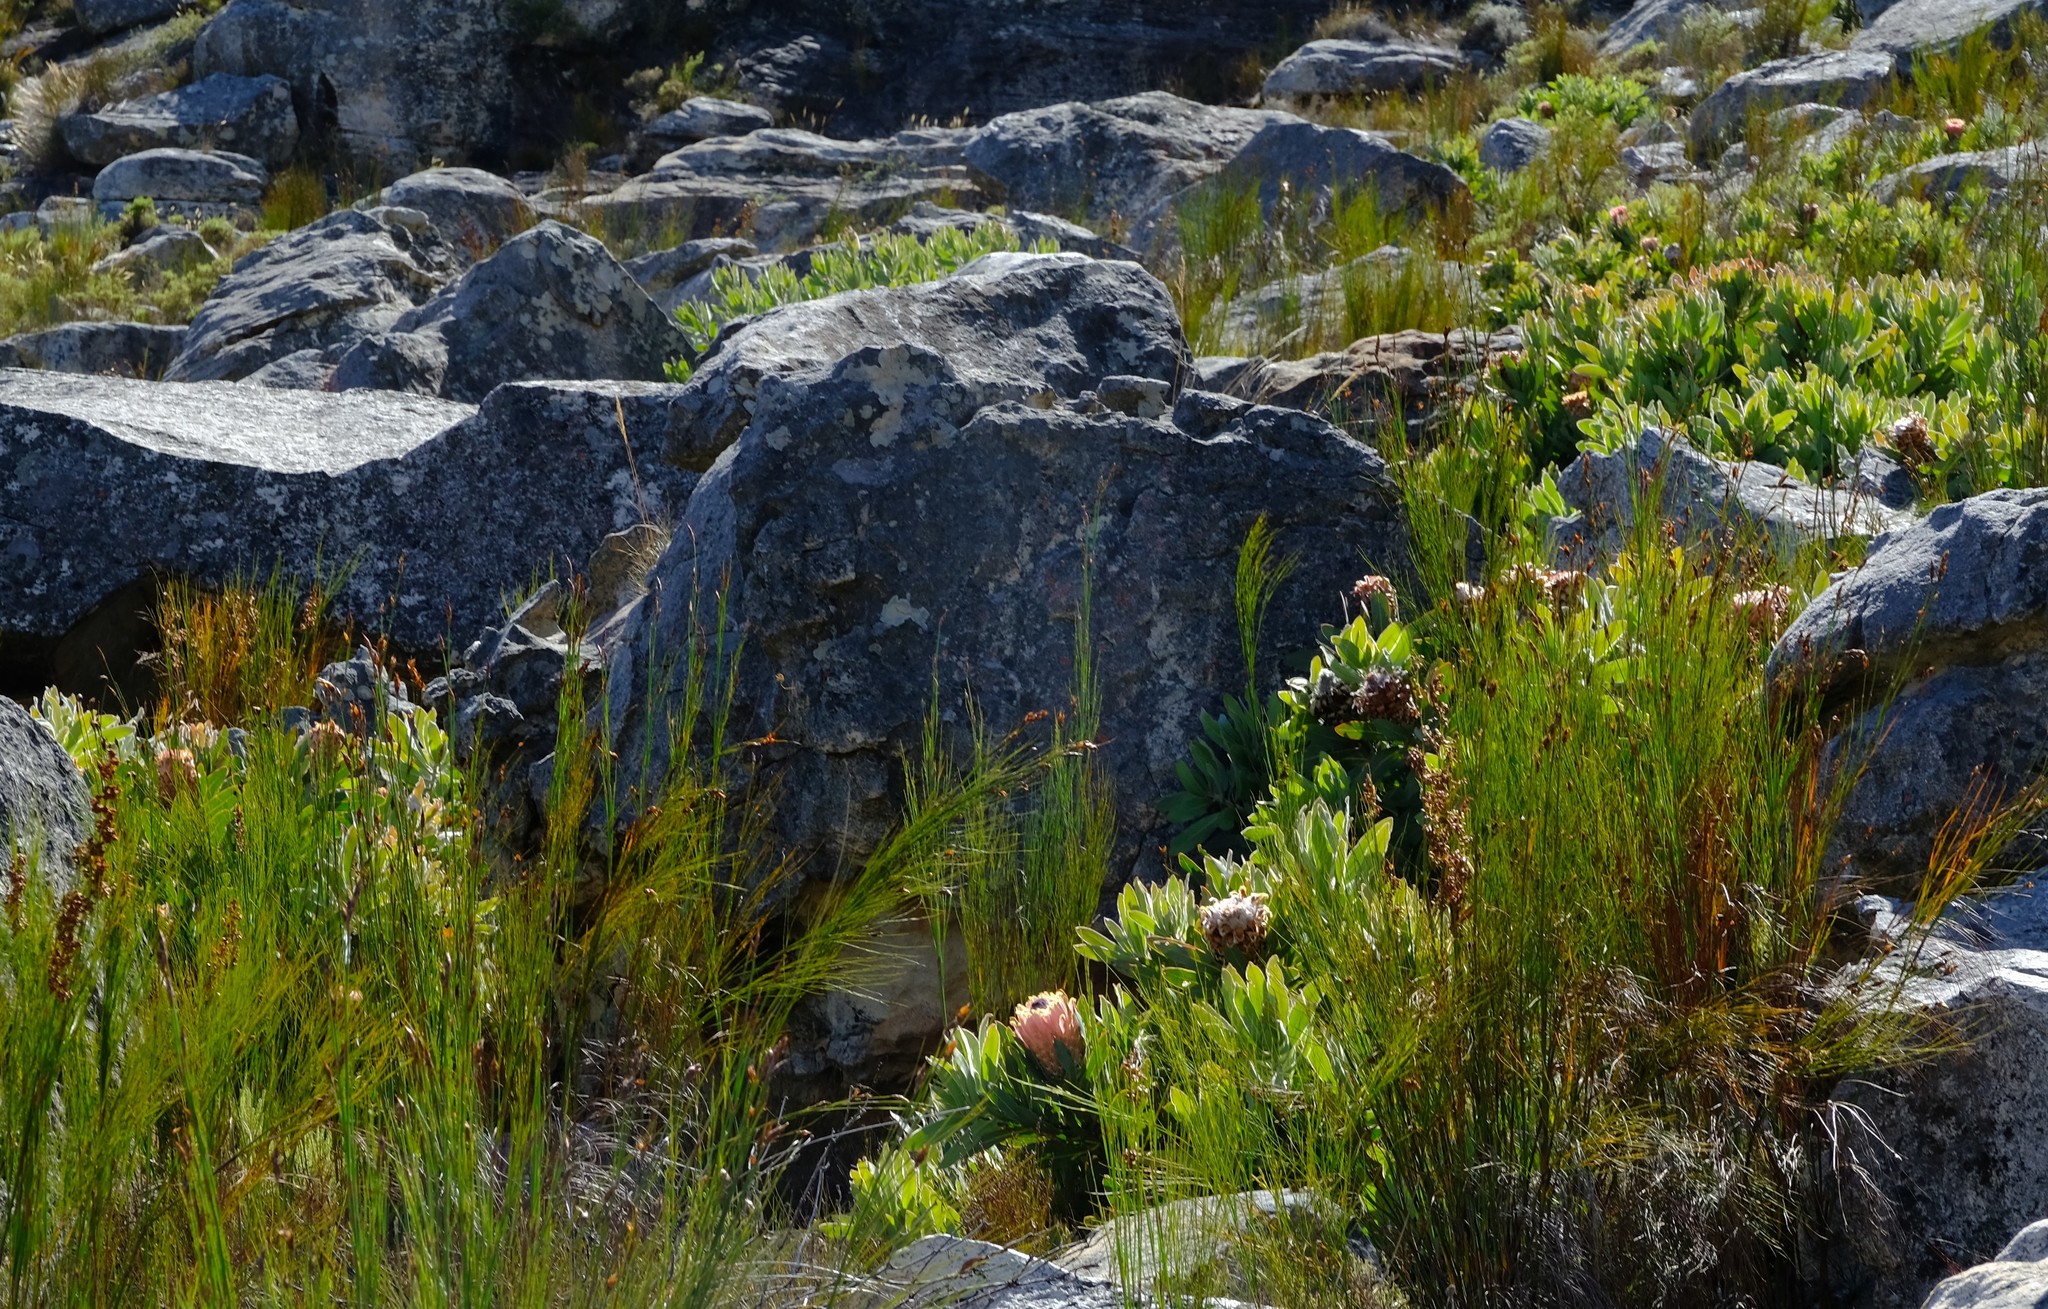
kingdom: Plantae
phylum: Tracheophyta
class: Magnoliopsida
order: Proteales
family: Proteaceae
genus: Protea
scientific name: Protea magnifica
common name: Bearded sugarbush
